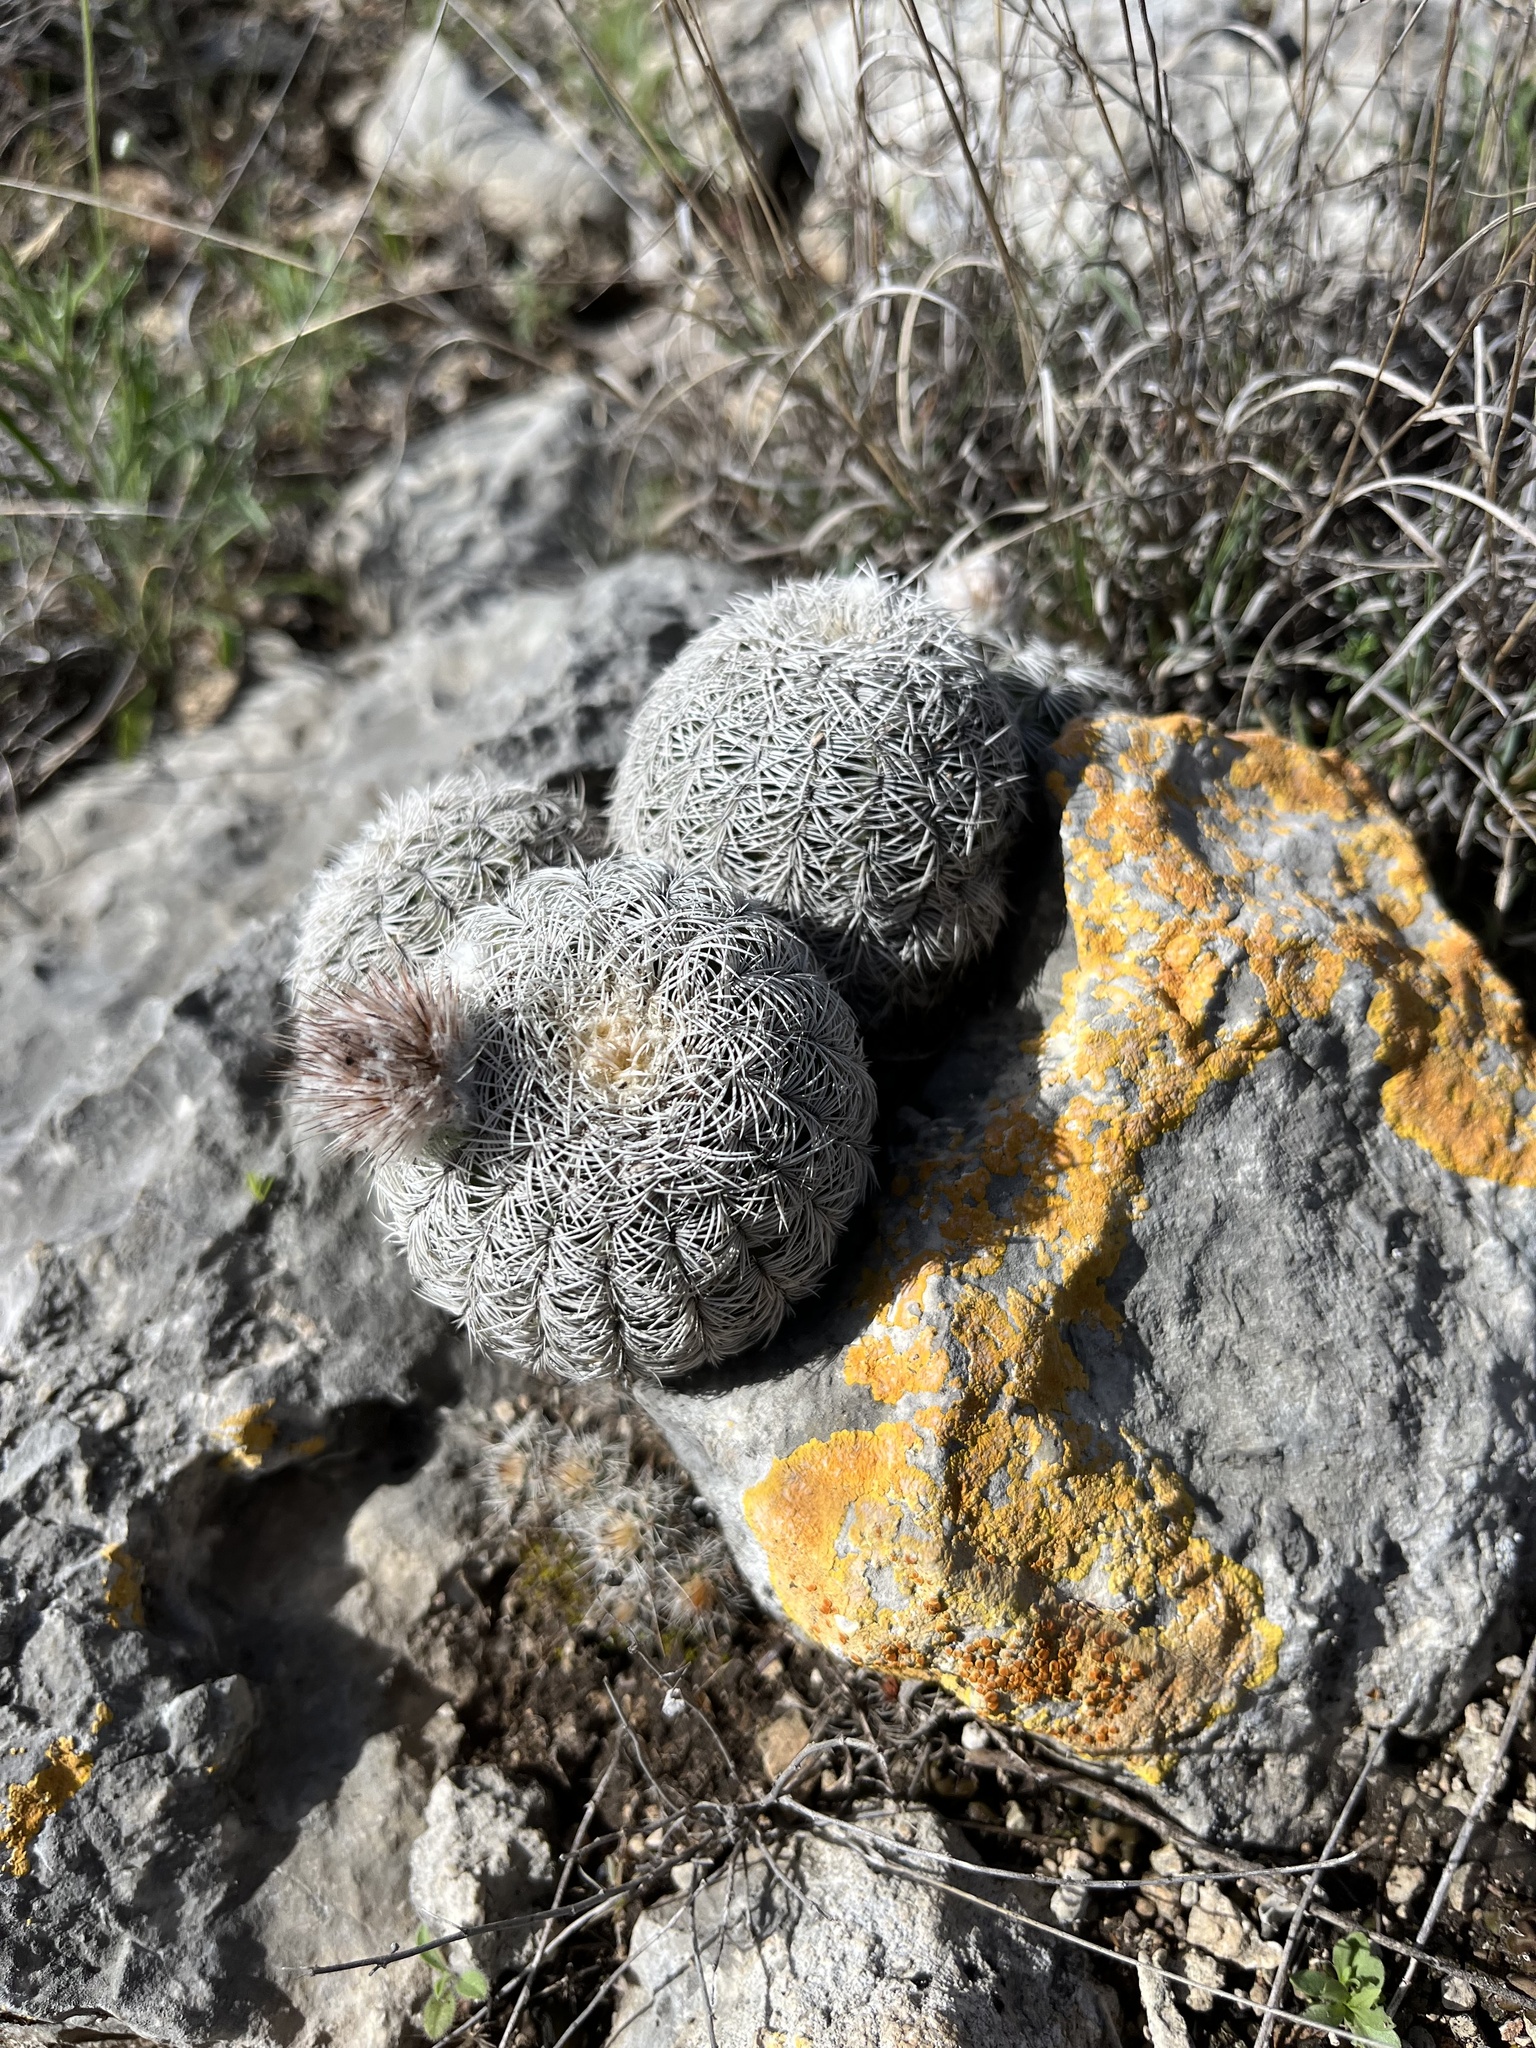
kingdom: Plantae
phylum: Tracheophyta
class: Magnoliopsida
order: Caryophyllales
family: Cactaceae
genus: Echinocereus
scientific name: Echinocereus reichenbachii
